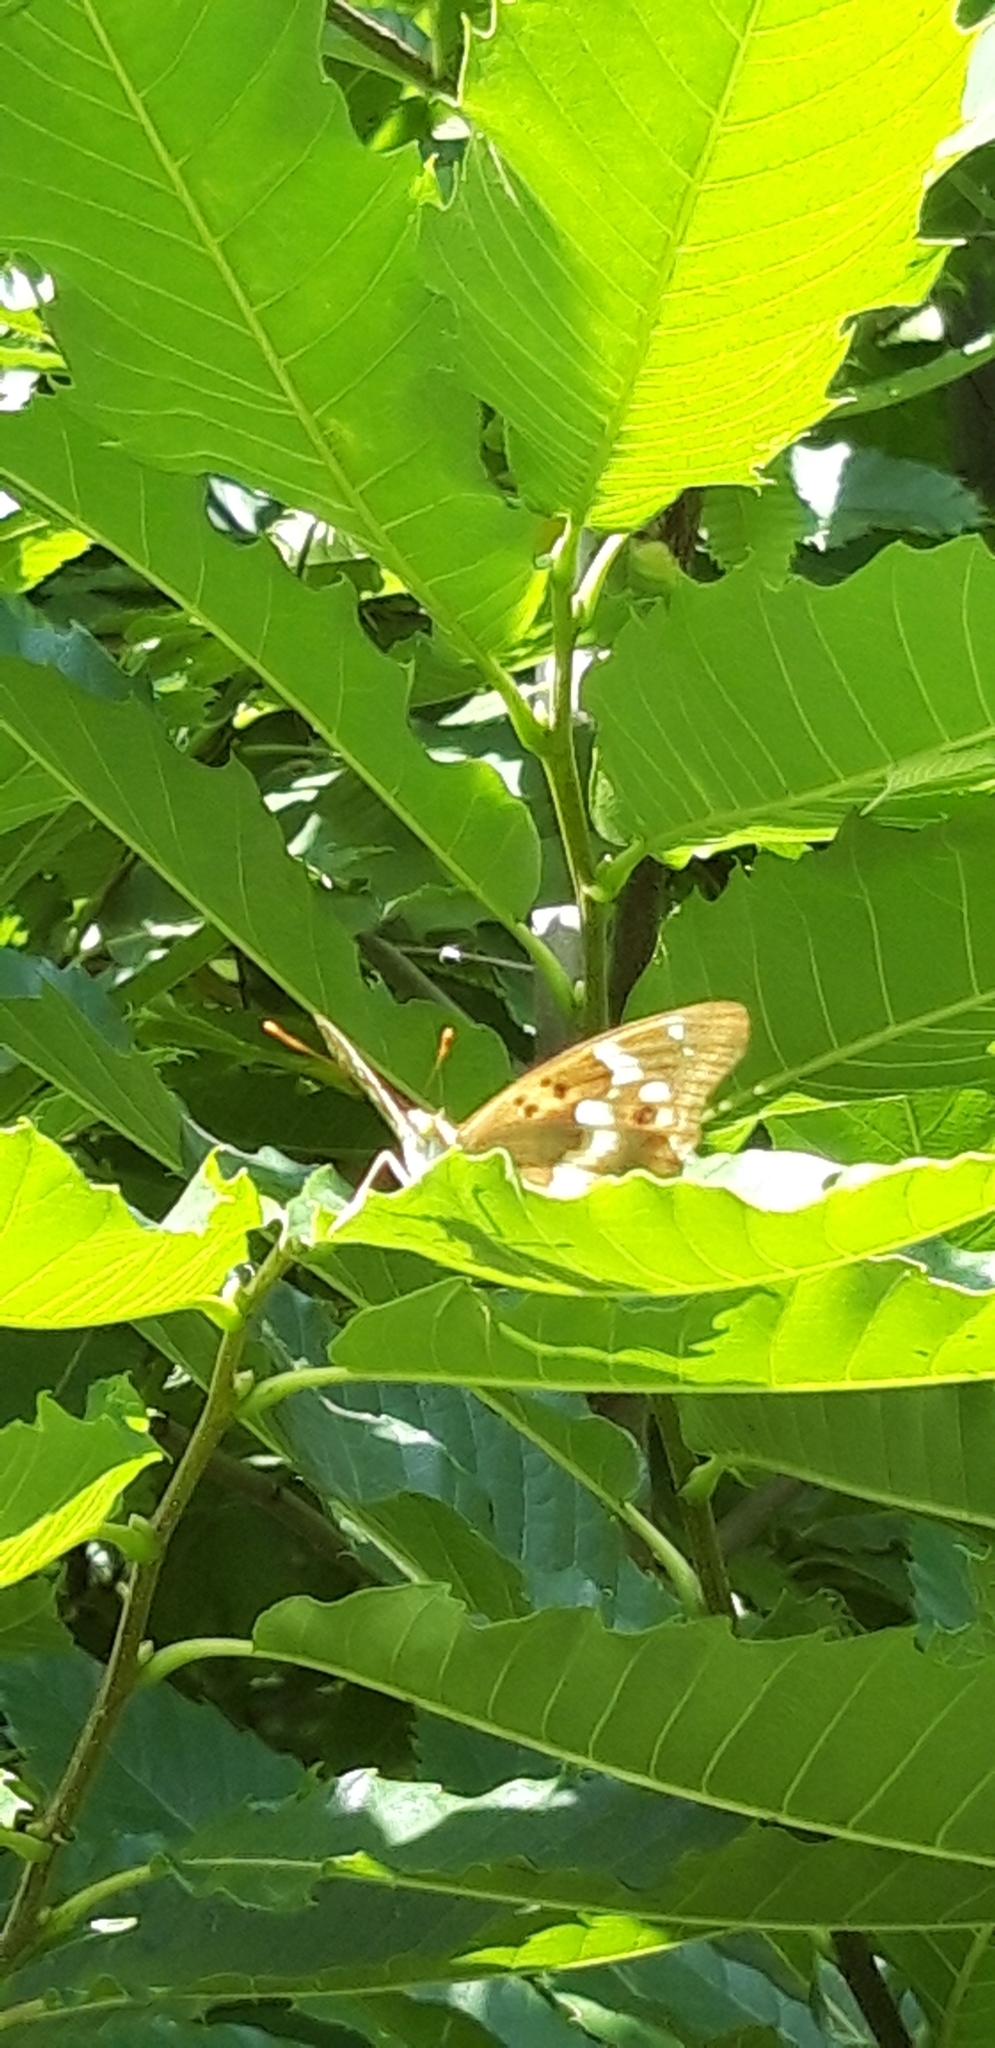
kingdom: Animalia
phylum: Arthropoda
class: Insecta
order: Lepidoptera
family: Nymphalidae
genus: Apatura
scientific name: Apatura ilia
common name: Lesser purple emperor
